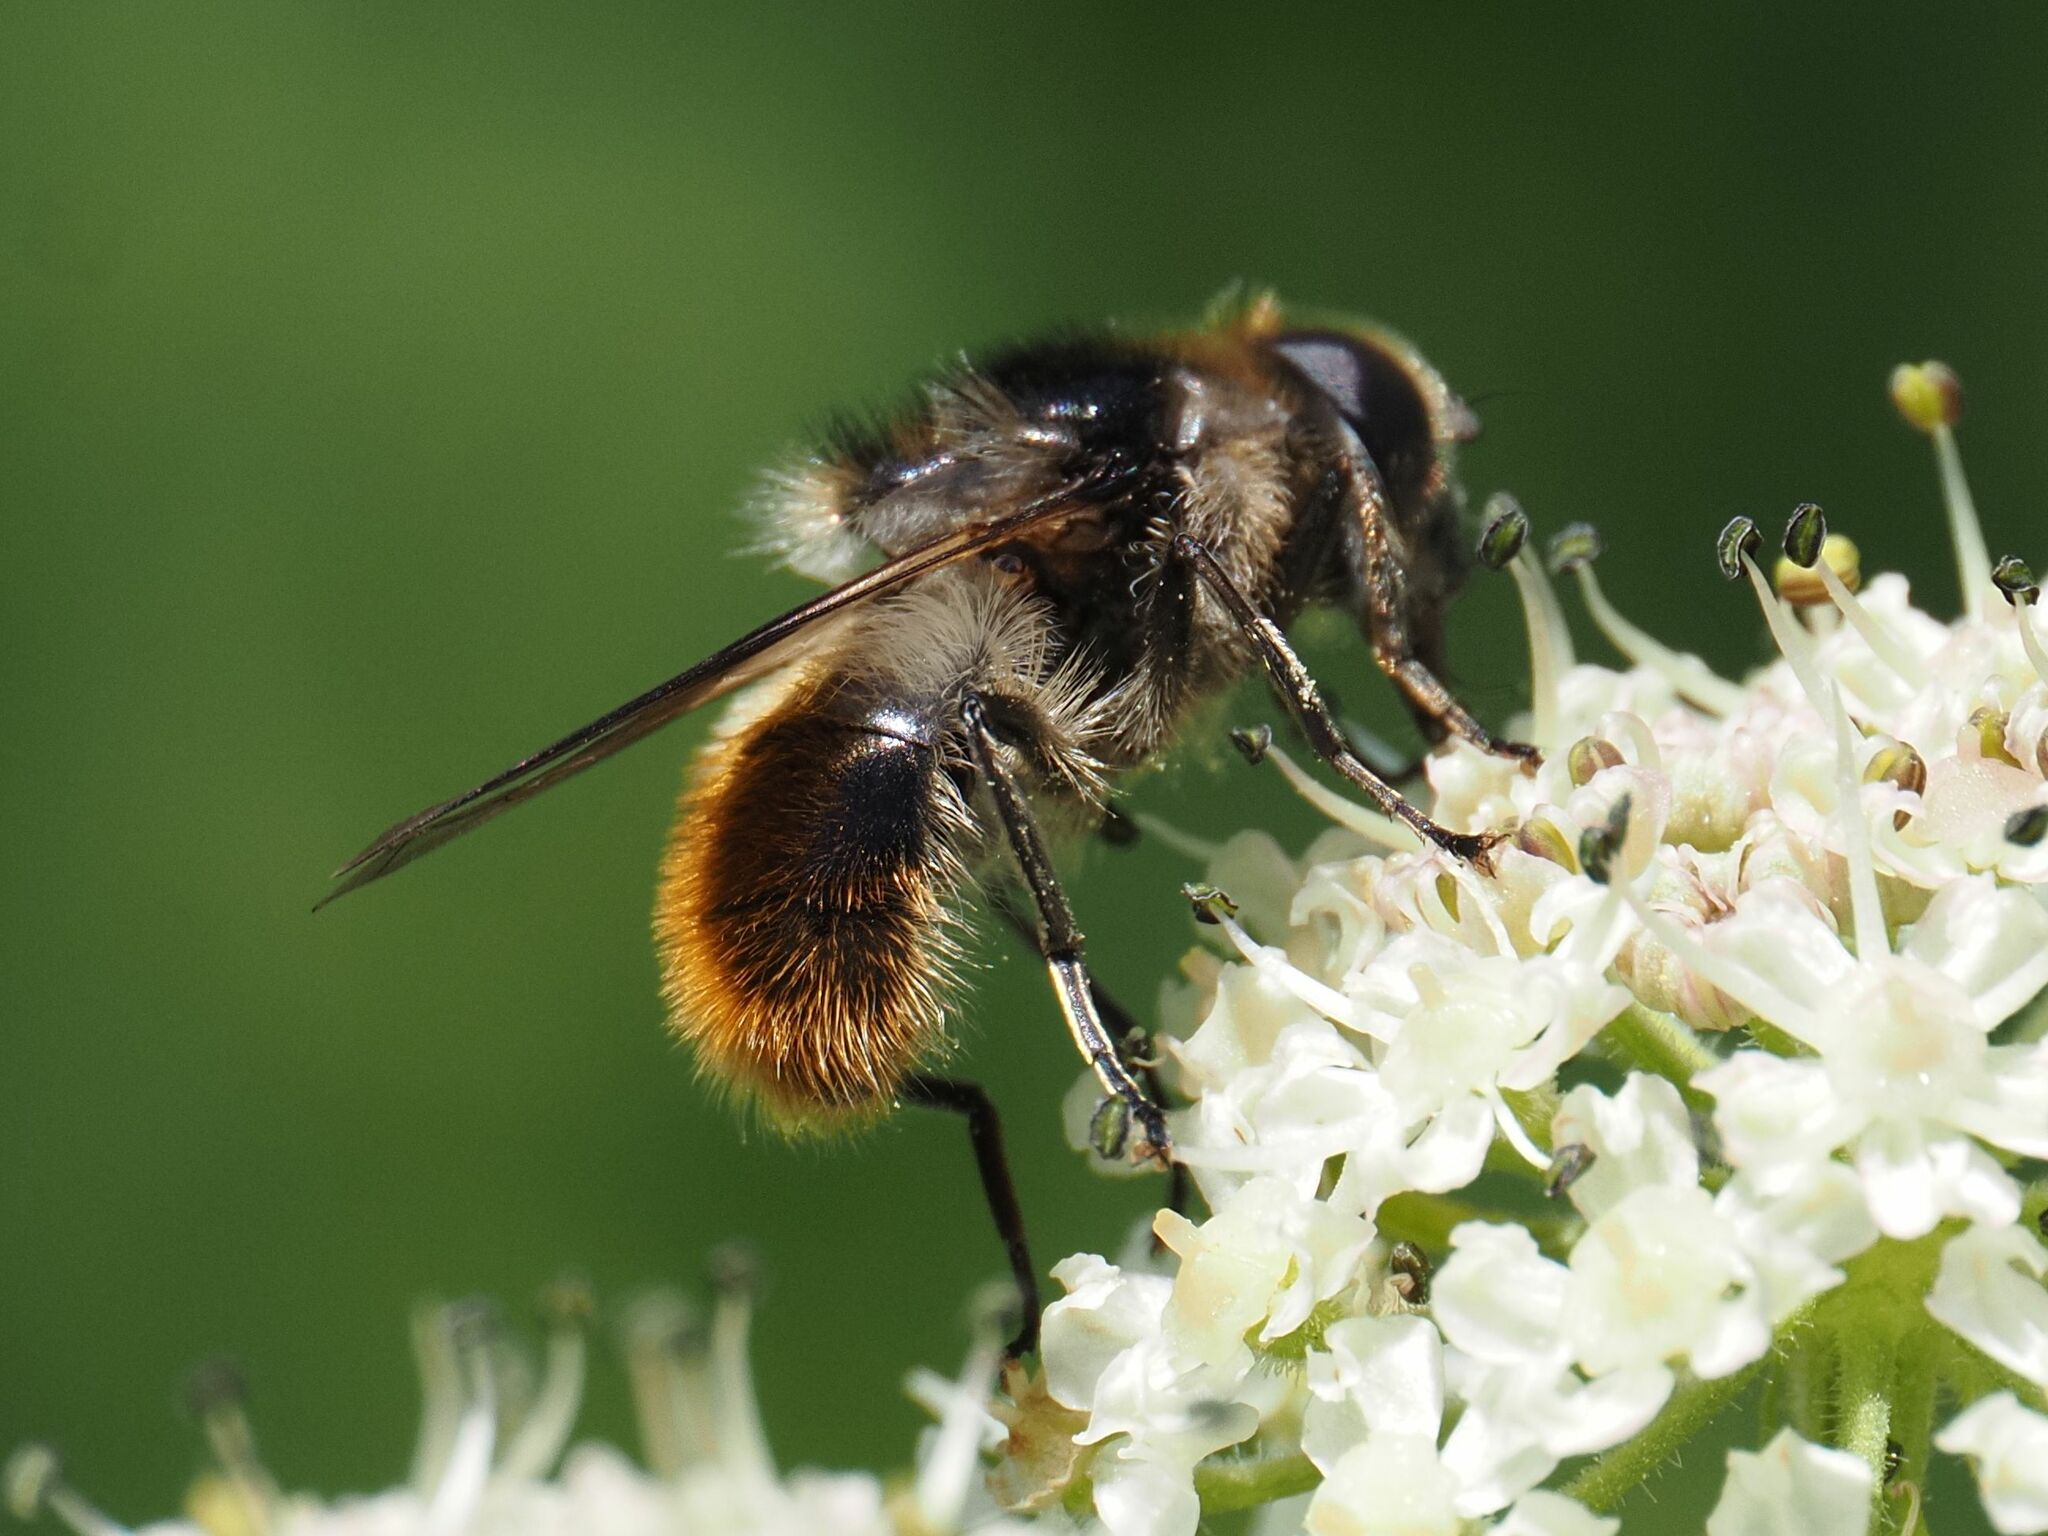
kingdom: Animalia
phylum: Arthropoda
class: Insecta
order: Diptera
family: Syrphidae
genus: Cheilosia
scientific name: Cheilosia illustrata
